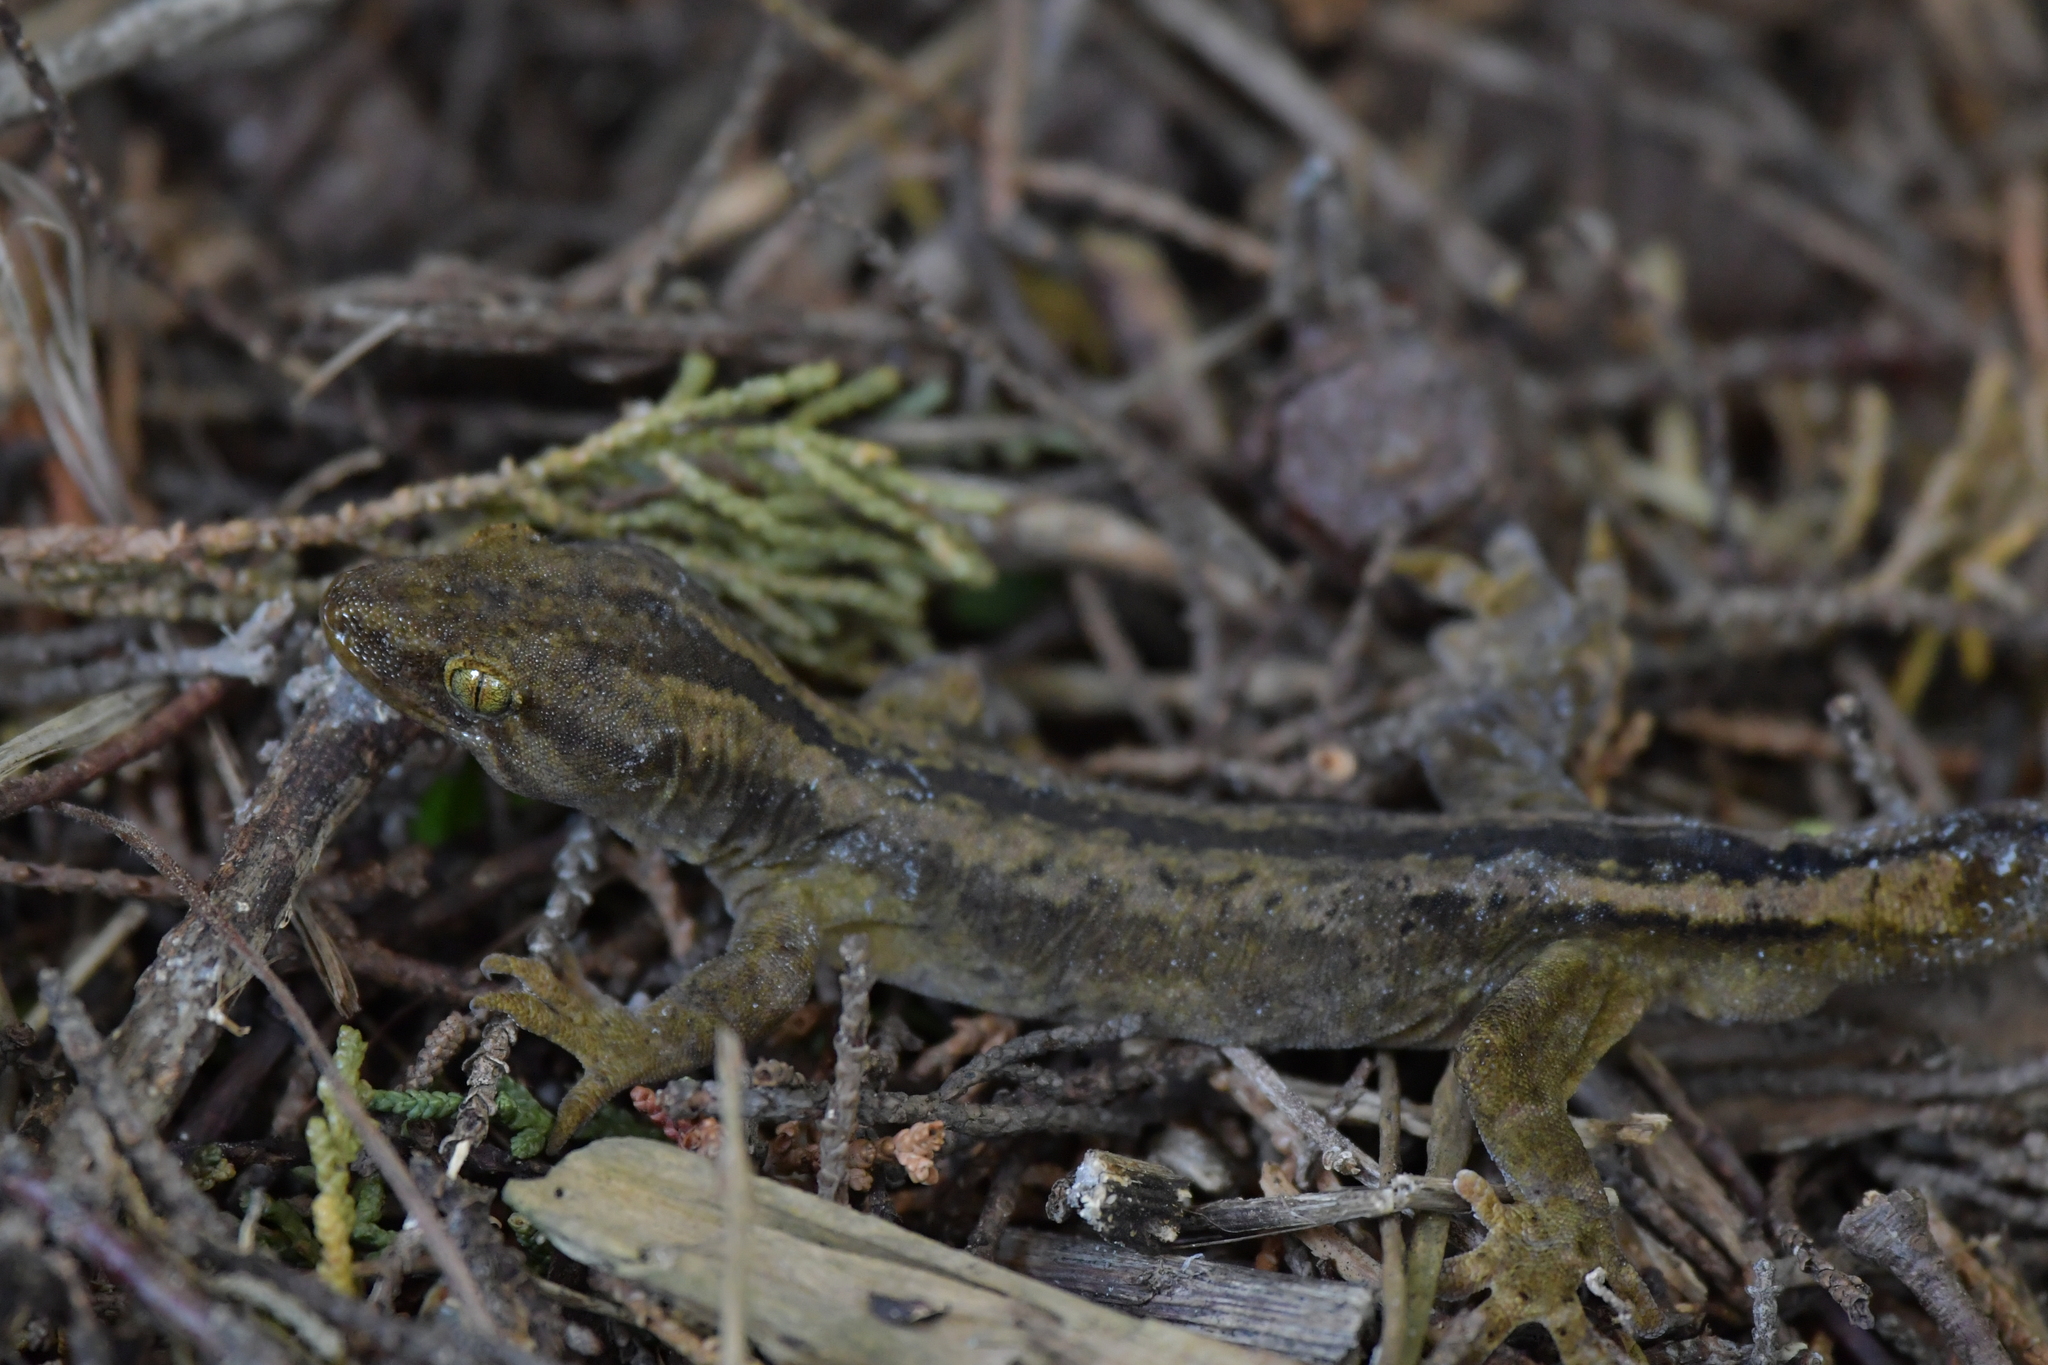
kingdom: Animalia
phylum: Chordata
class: Squamata
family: Diplodactylidae
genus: Woodworthia
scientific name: Woodworthia maculata
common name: Raukawa gecko
